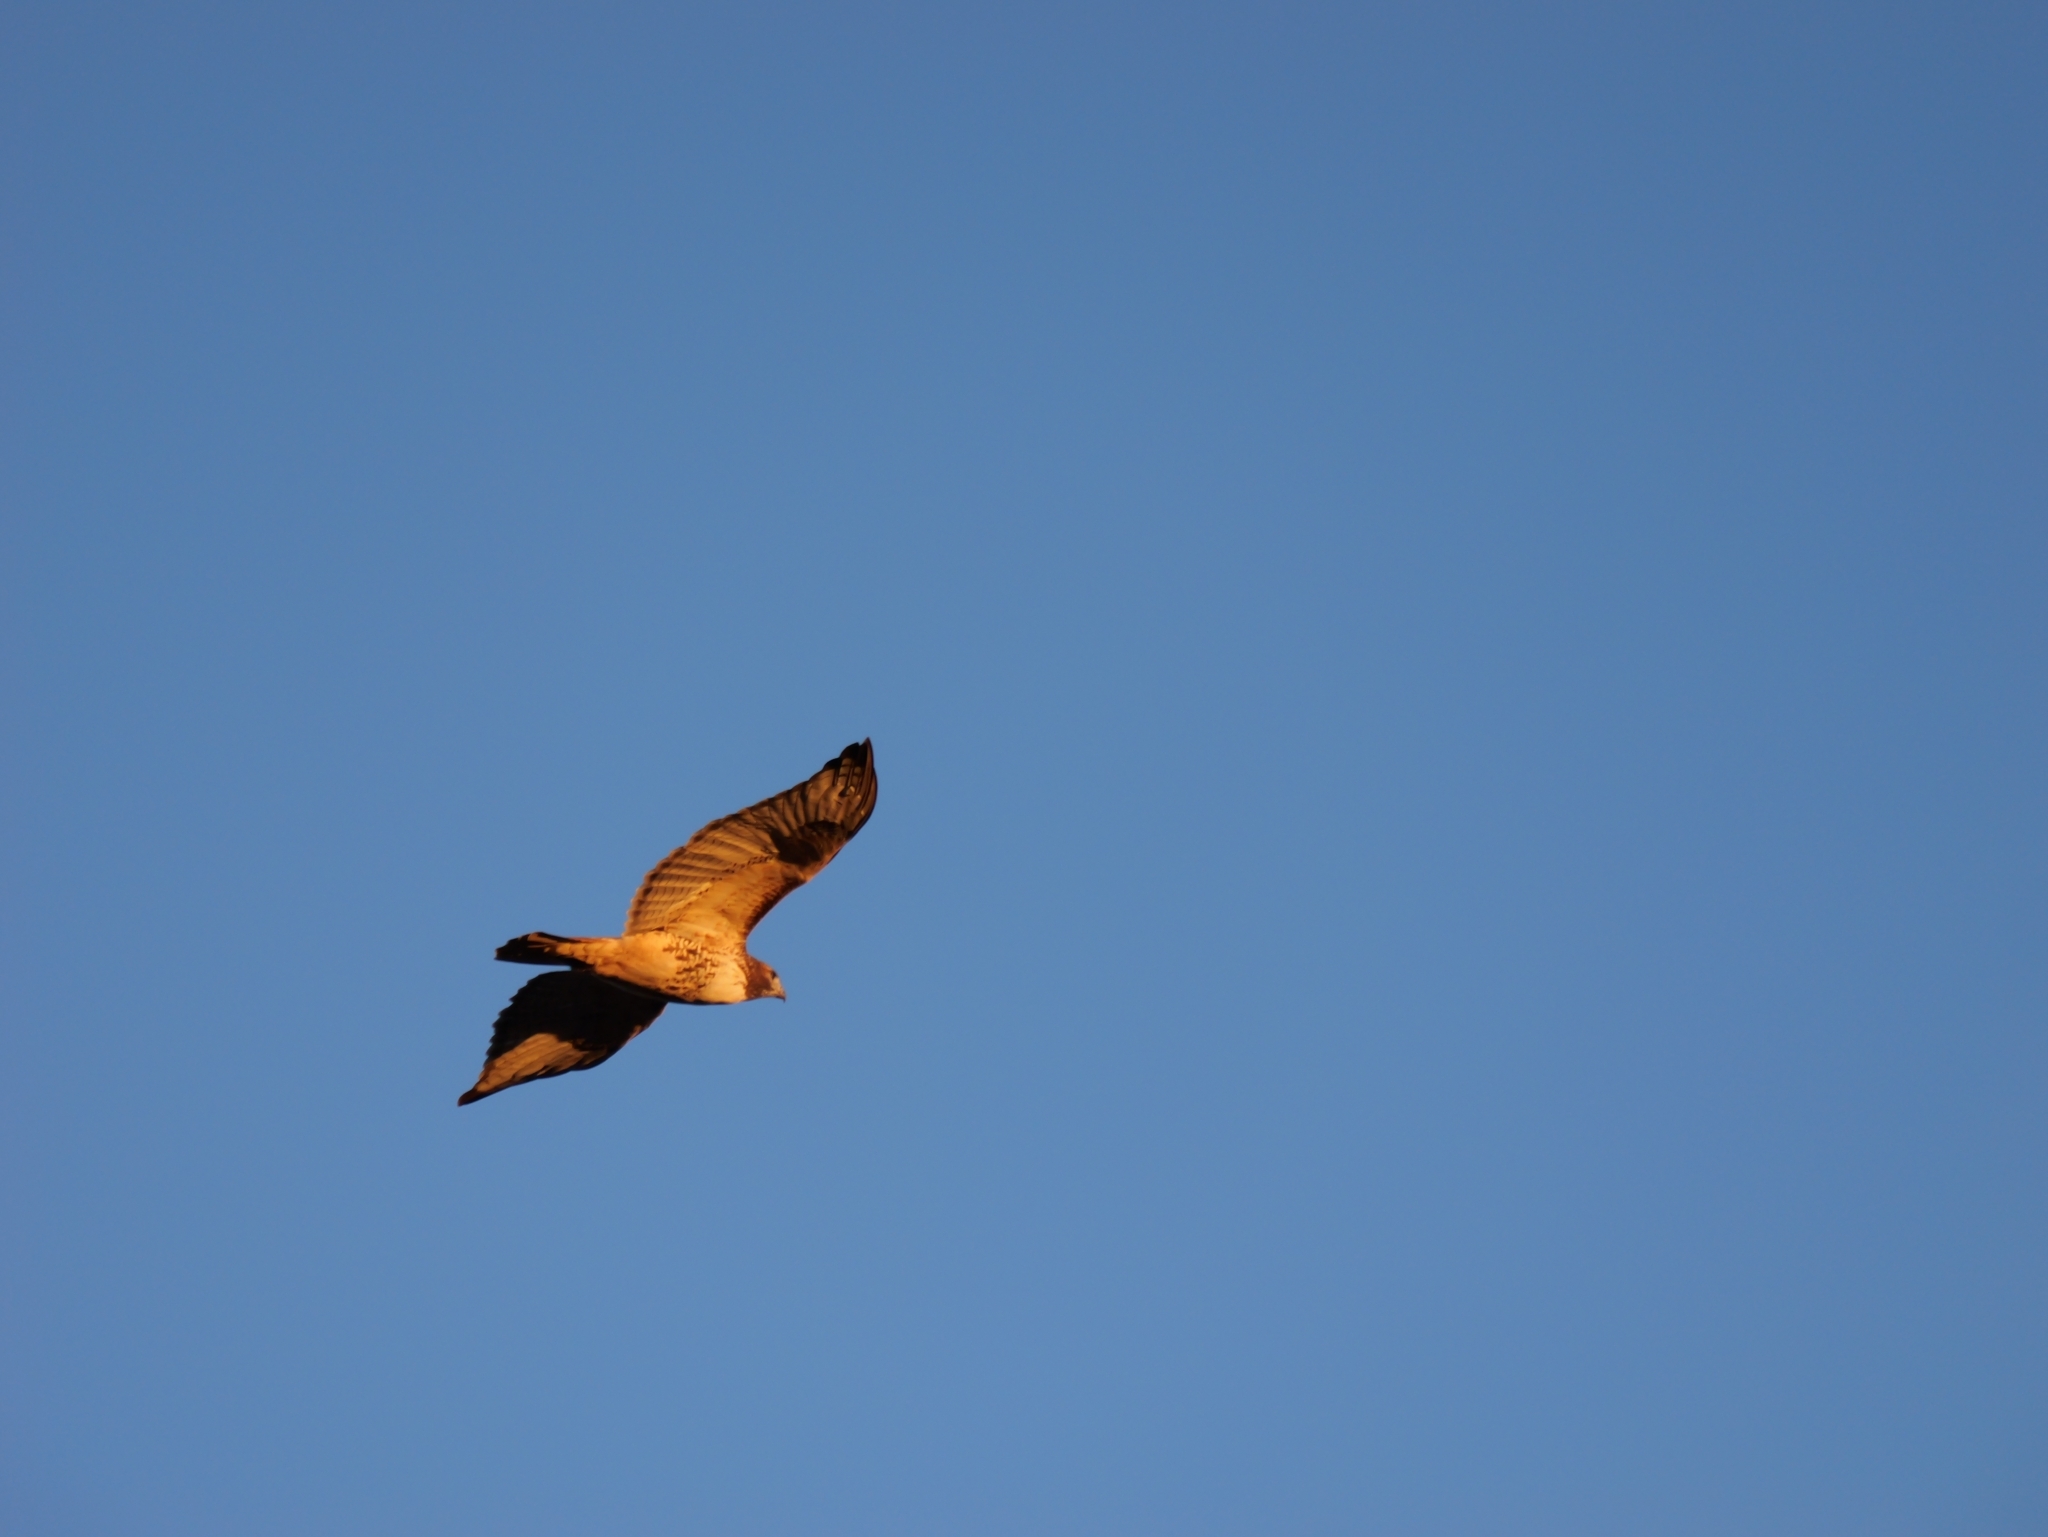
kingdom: Animalia
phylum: Chordata
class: Aves
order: Accipitriformes
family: Accipitridae
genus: Buteo
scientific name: Buteo jamaicensis
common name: Red-tailed hawk
